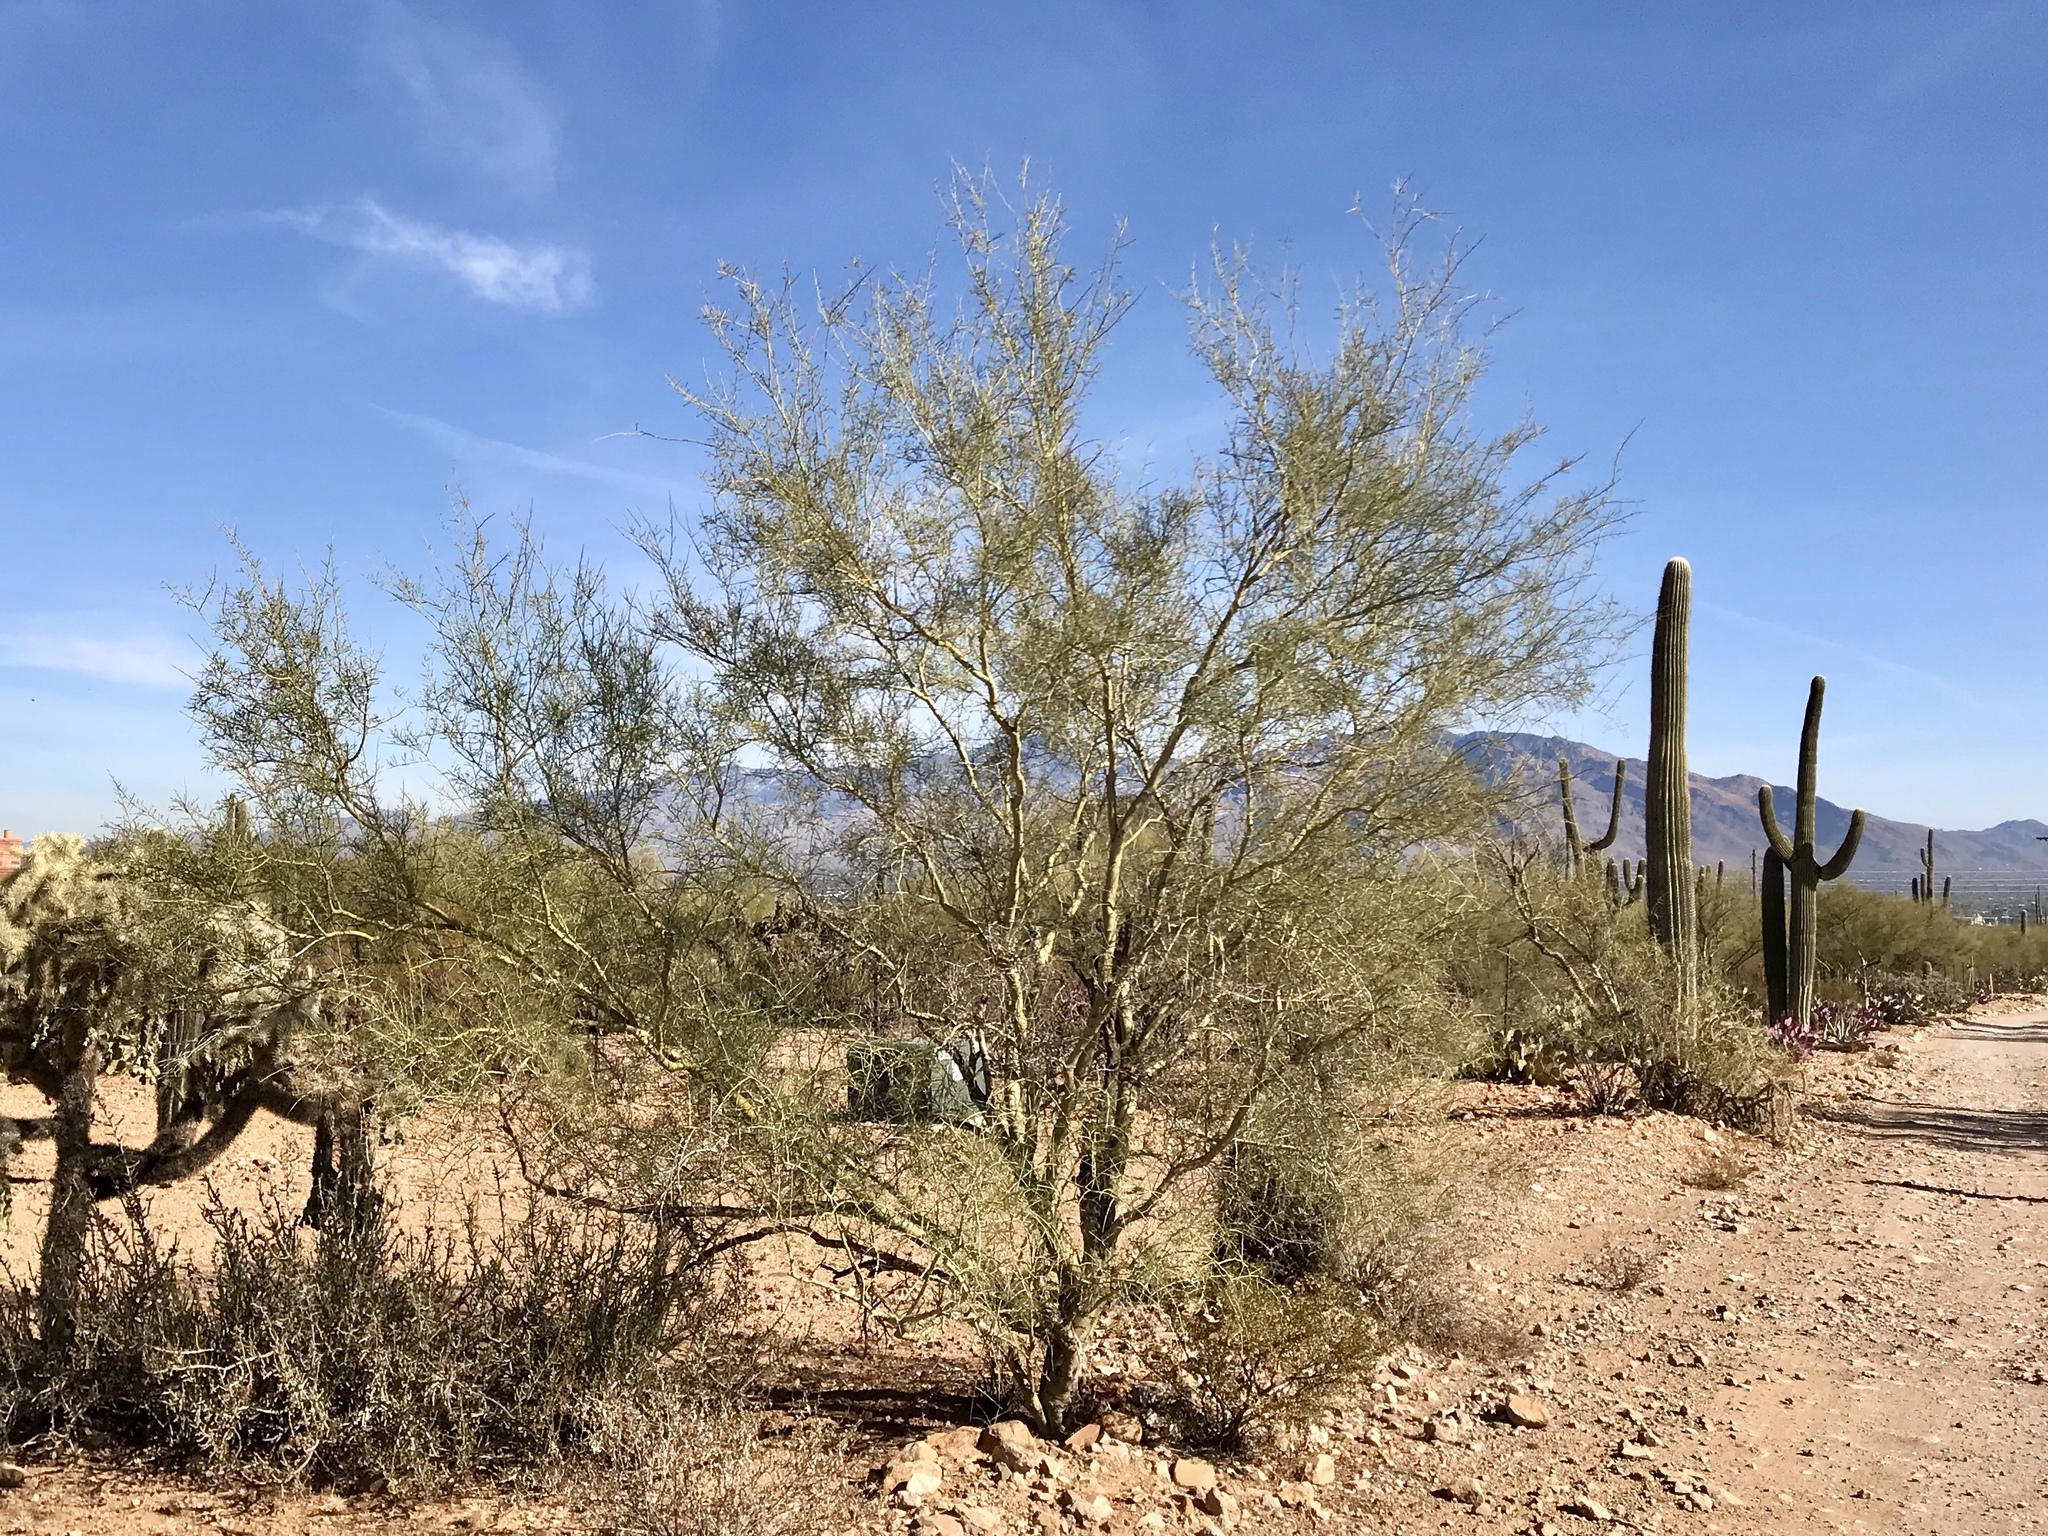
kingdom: Plantae
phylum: Tracheophyta
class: Magnoliopsida
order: Fabales
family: Fabaceae
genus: Parkinsonia
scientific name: Parkinsonia microphylla
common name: Yellow paloverde
